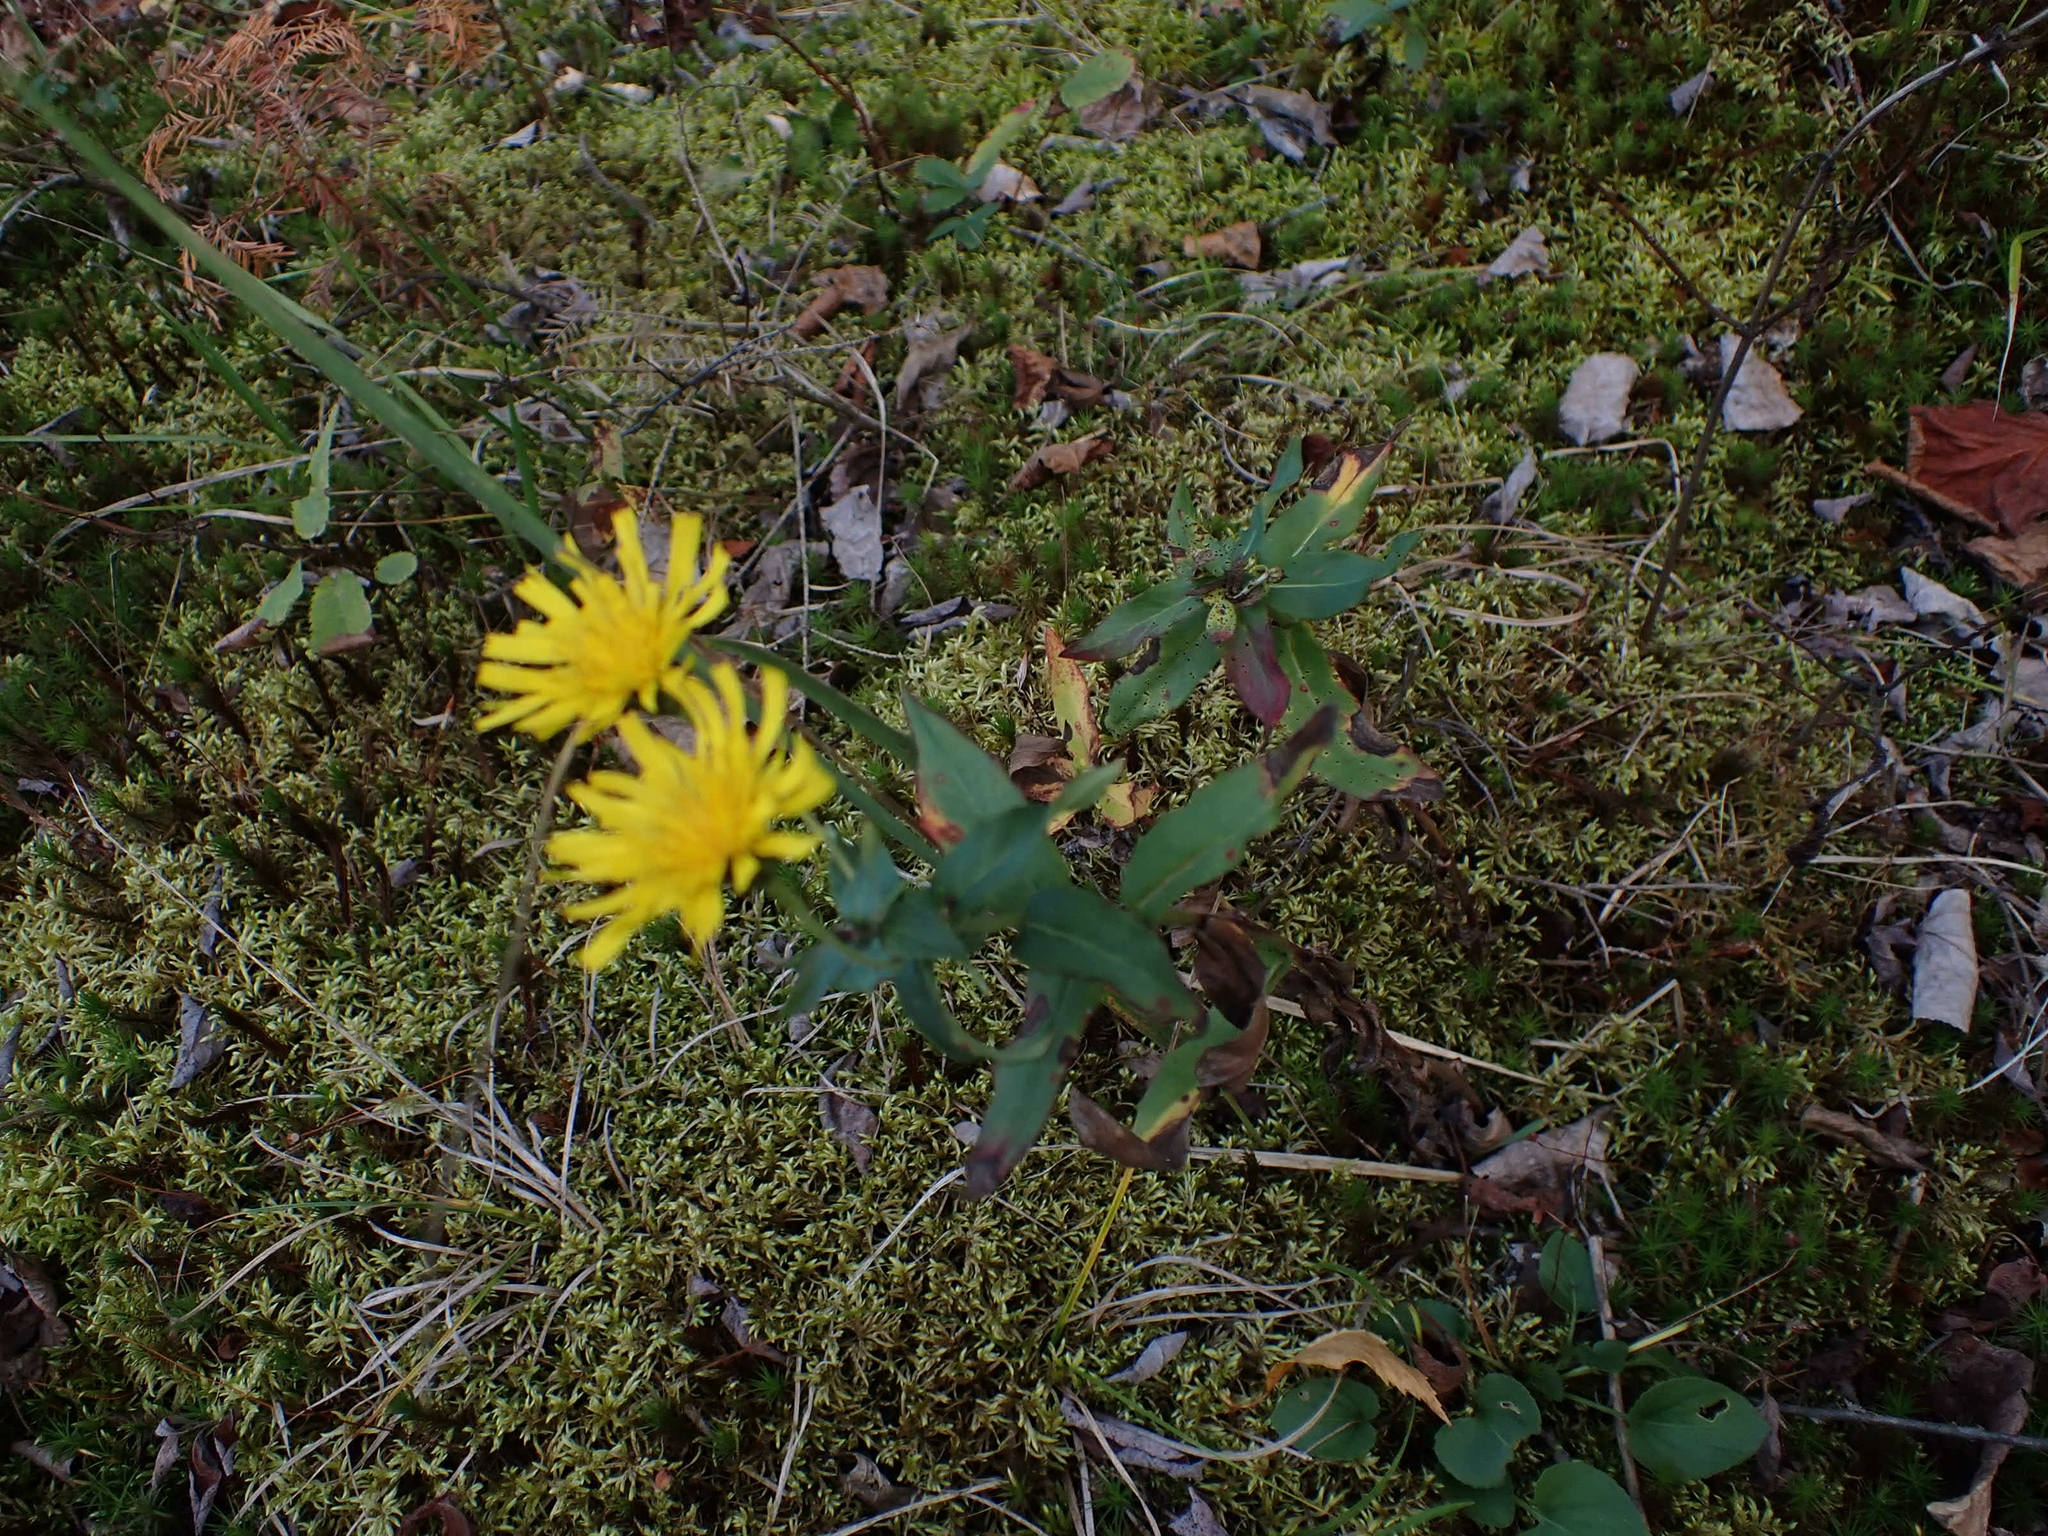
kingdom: Plantae
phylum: Tracheophyta
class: Magnoliopsida
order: Asterales
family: Asteraceae
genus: Hieracium
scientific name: Hieracium umbellatum
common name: Northern hawkweed
